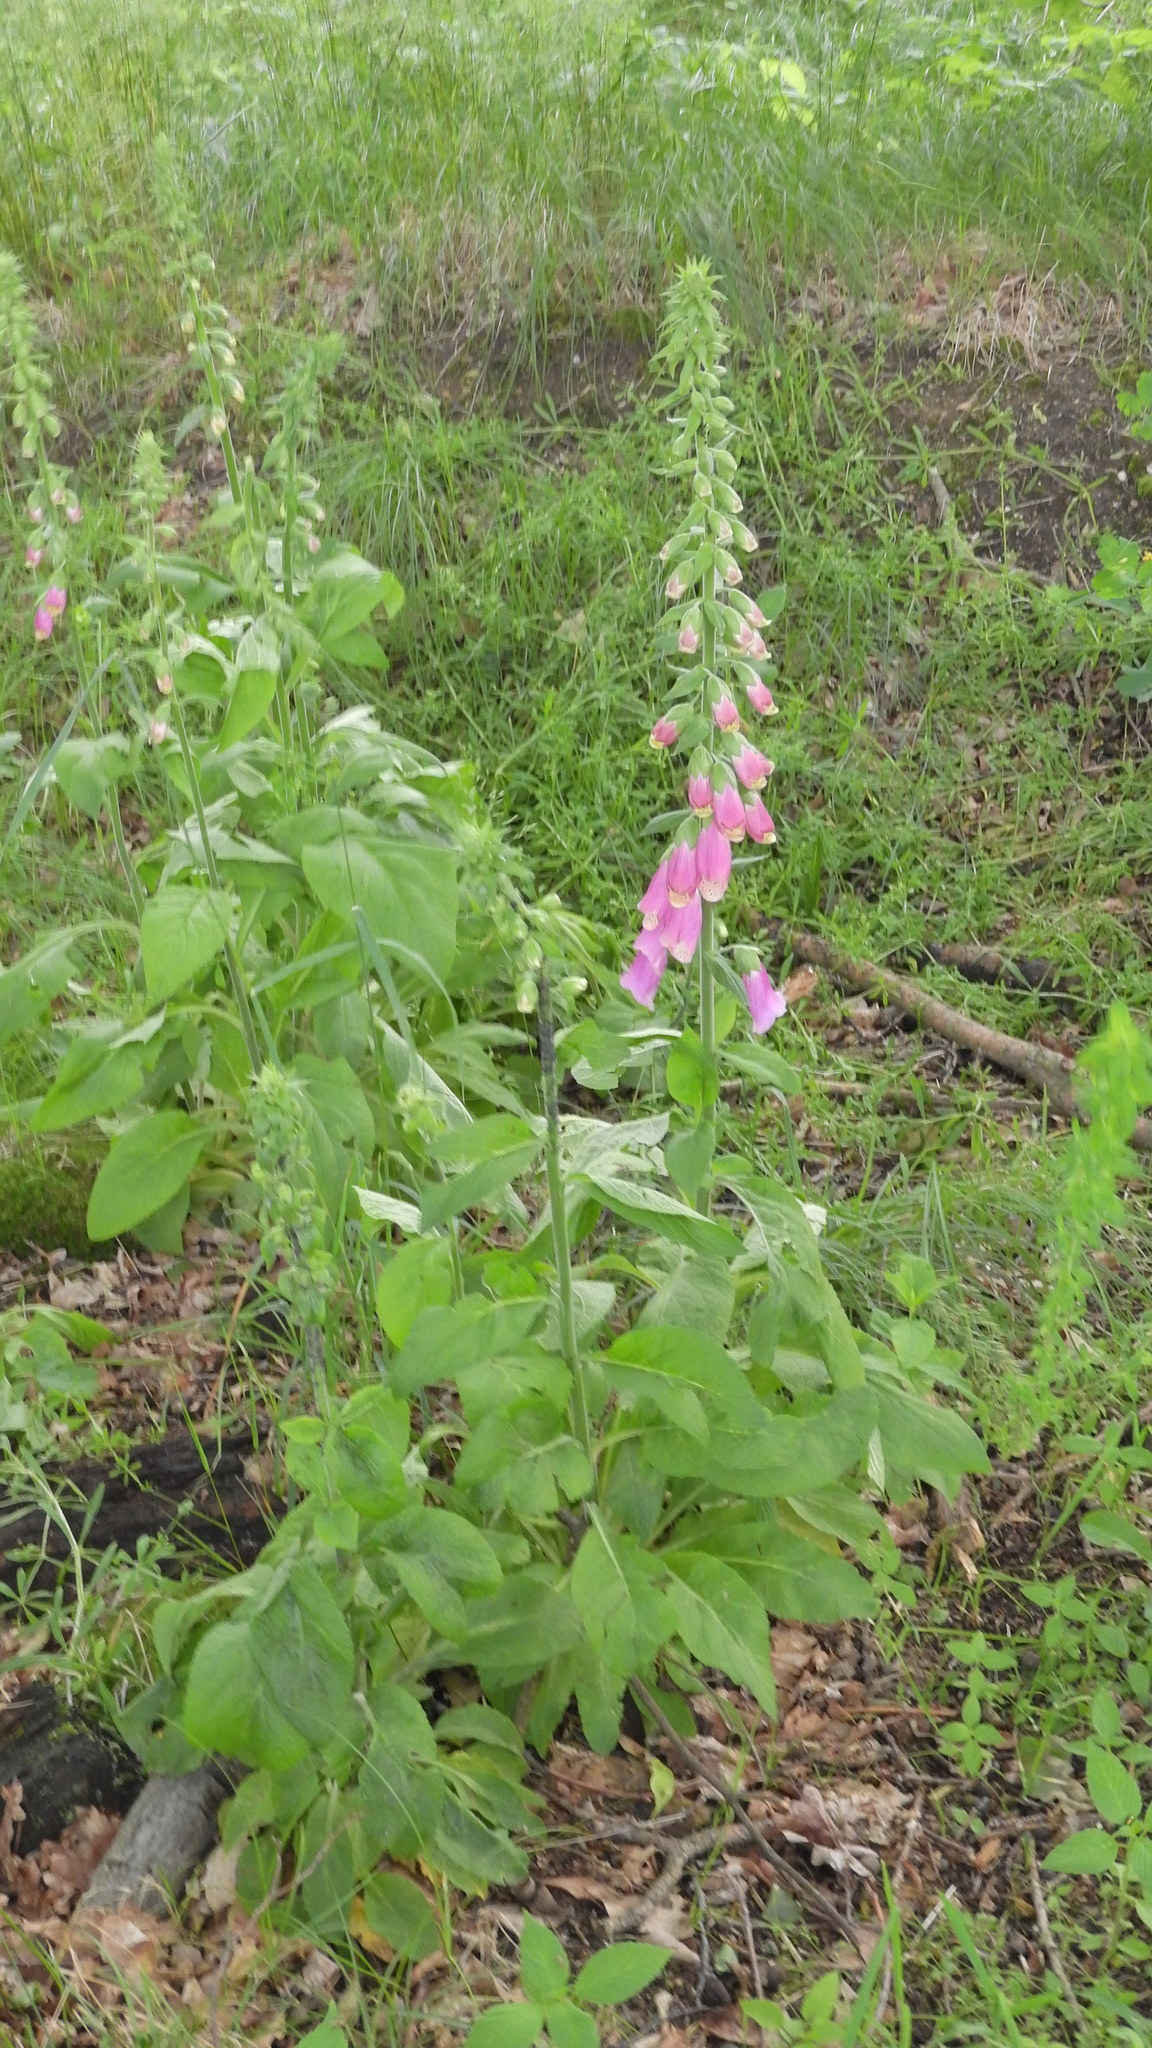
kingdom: Plantae
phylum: Tracheophyta
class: Magnoliopsida
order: Lamiales
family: Plantaginaceae
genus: Digitalis
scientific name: Digitalis purpurea
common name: Foxglove
